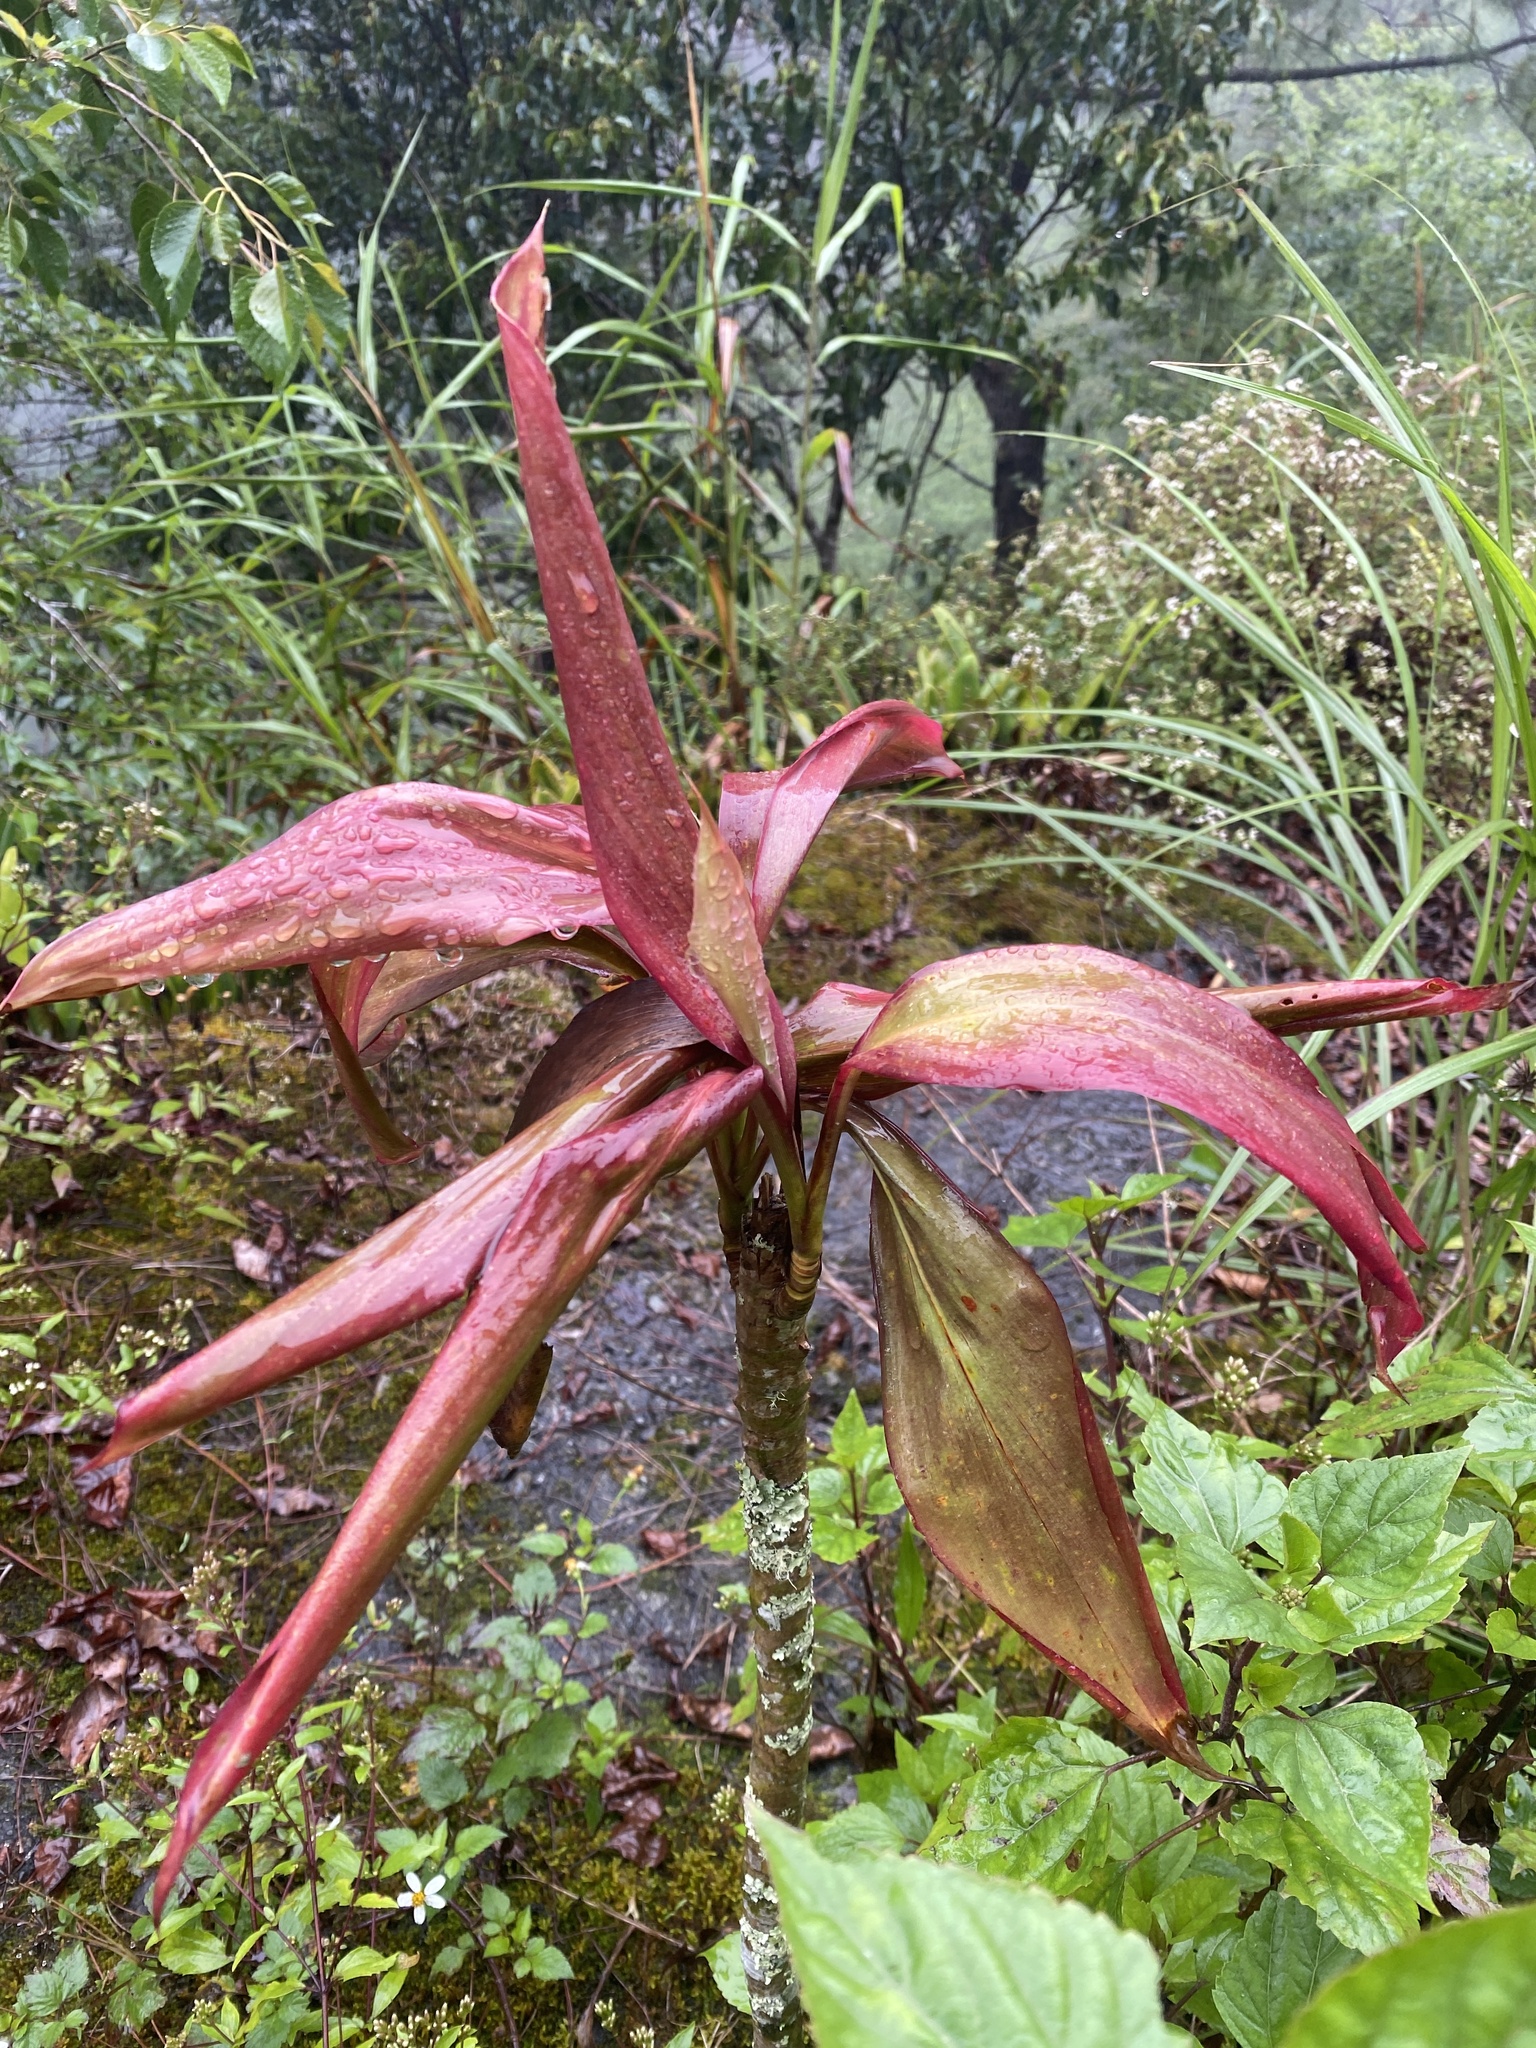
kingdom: Plantae
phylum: Tracheophyta
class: Liliopsida
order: Asparagales
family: Asparagaceae
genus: Cordyline
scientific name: Cordyline fruticosa
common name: Good-luck-plant
